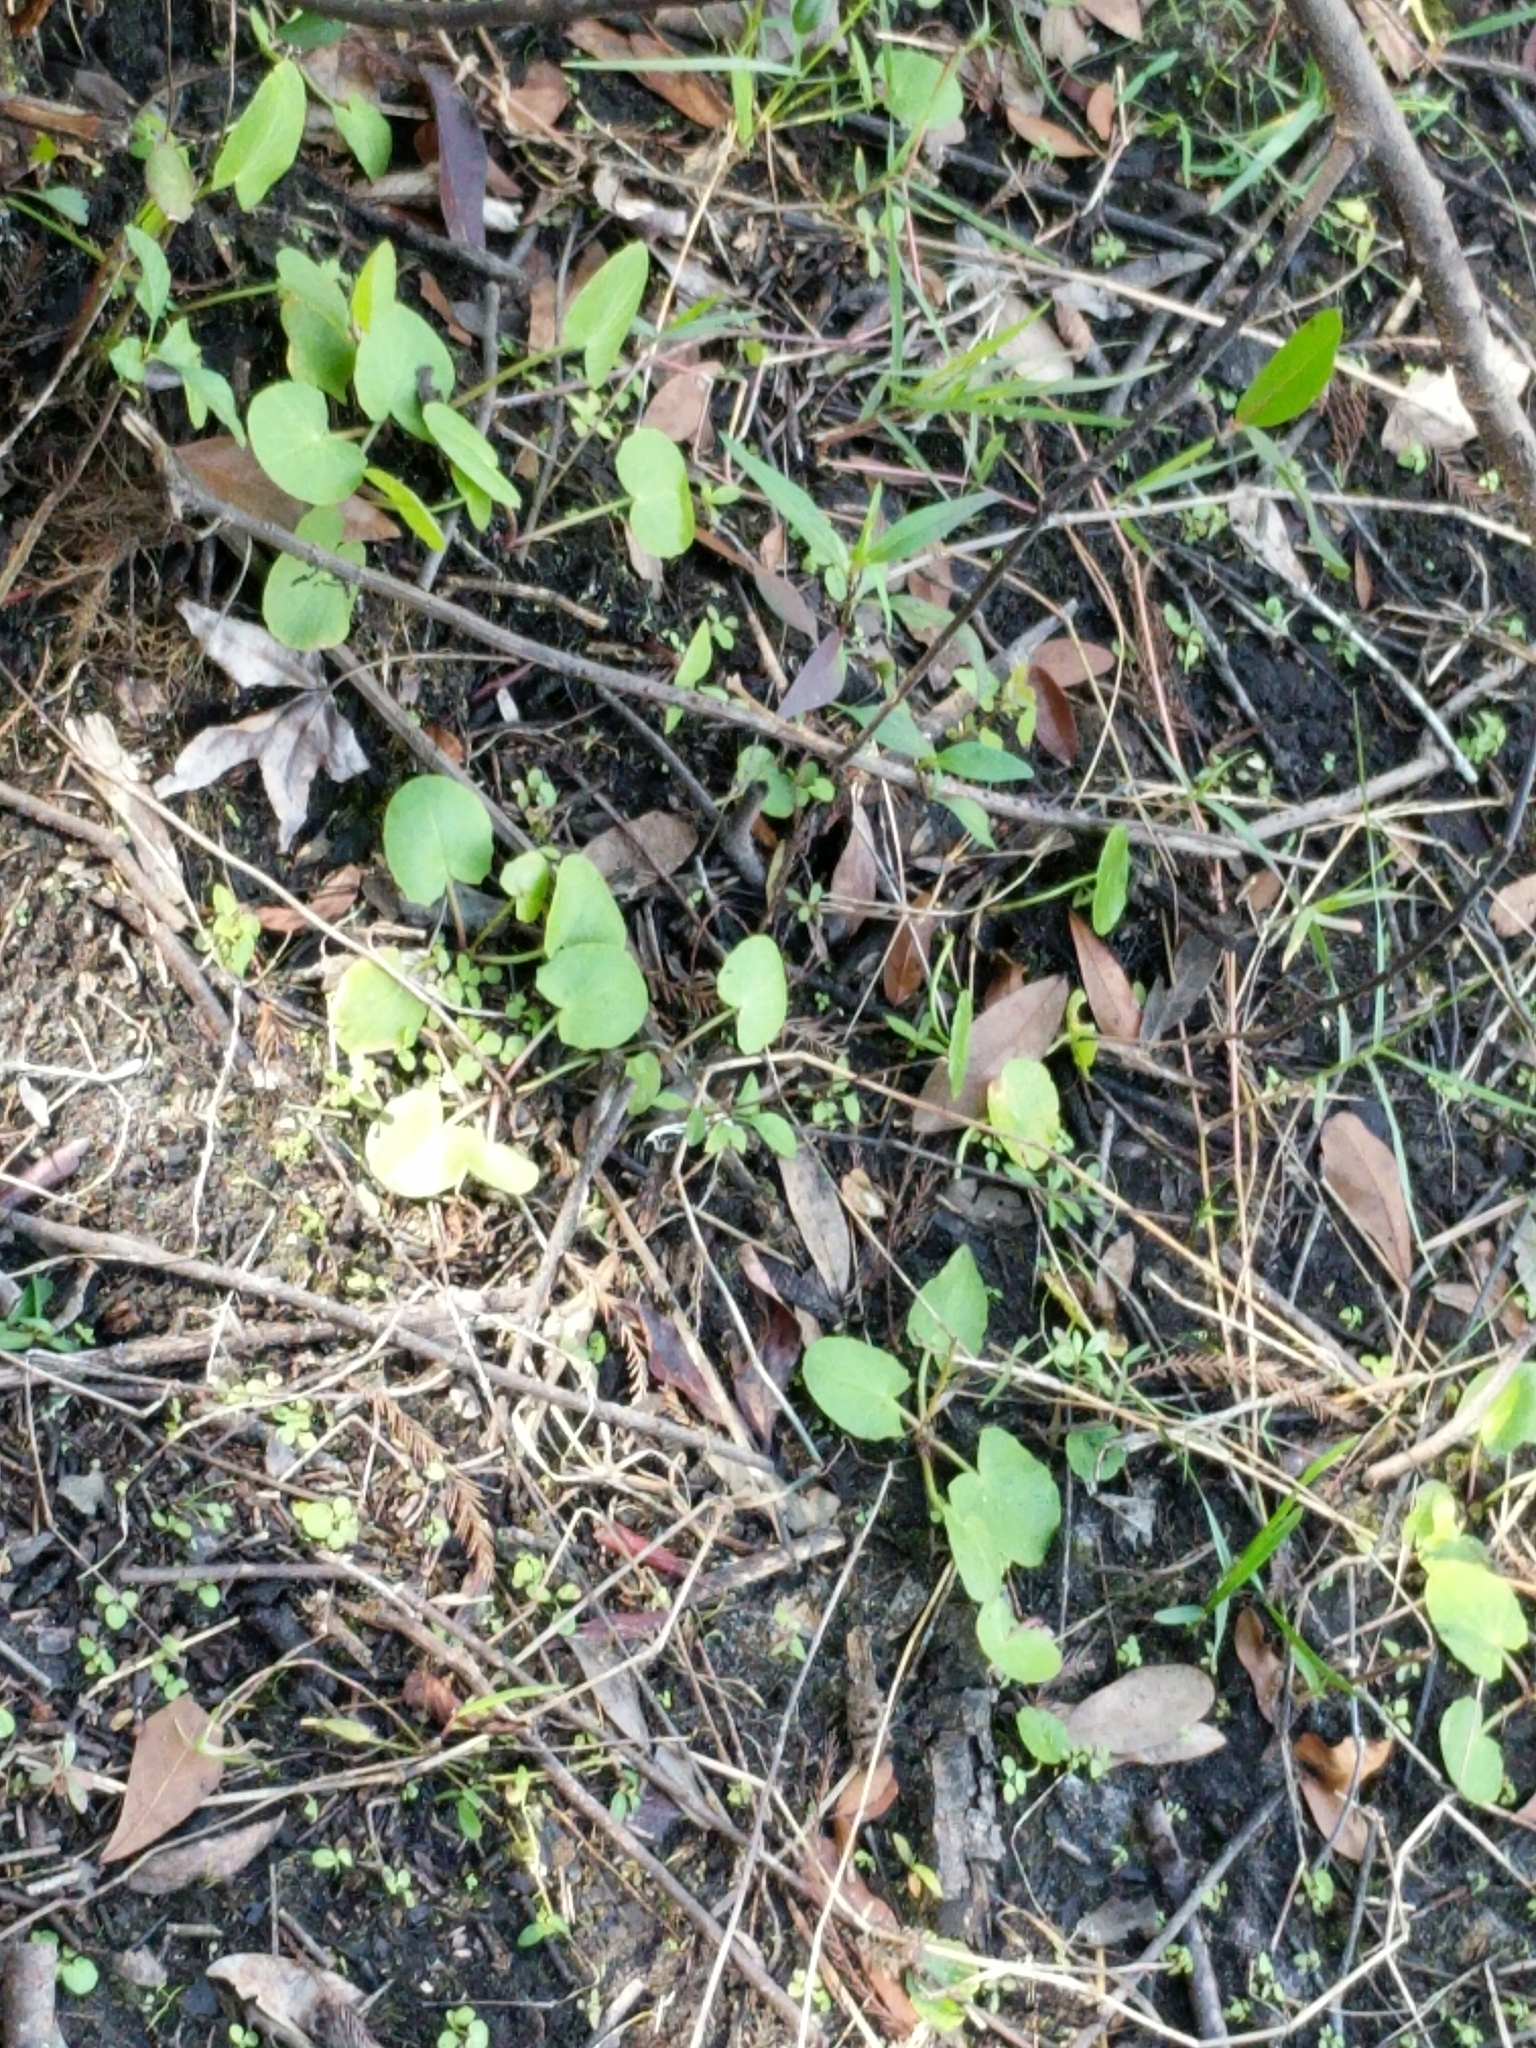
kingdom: Plantae
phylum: Tracheophyta
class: Magnoliopsida
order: Apiales
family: Apiaceae
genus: Centella
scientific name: Centella erecta
